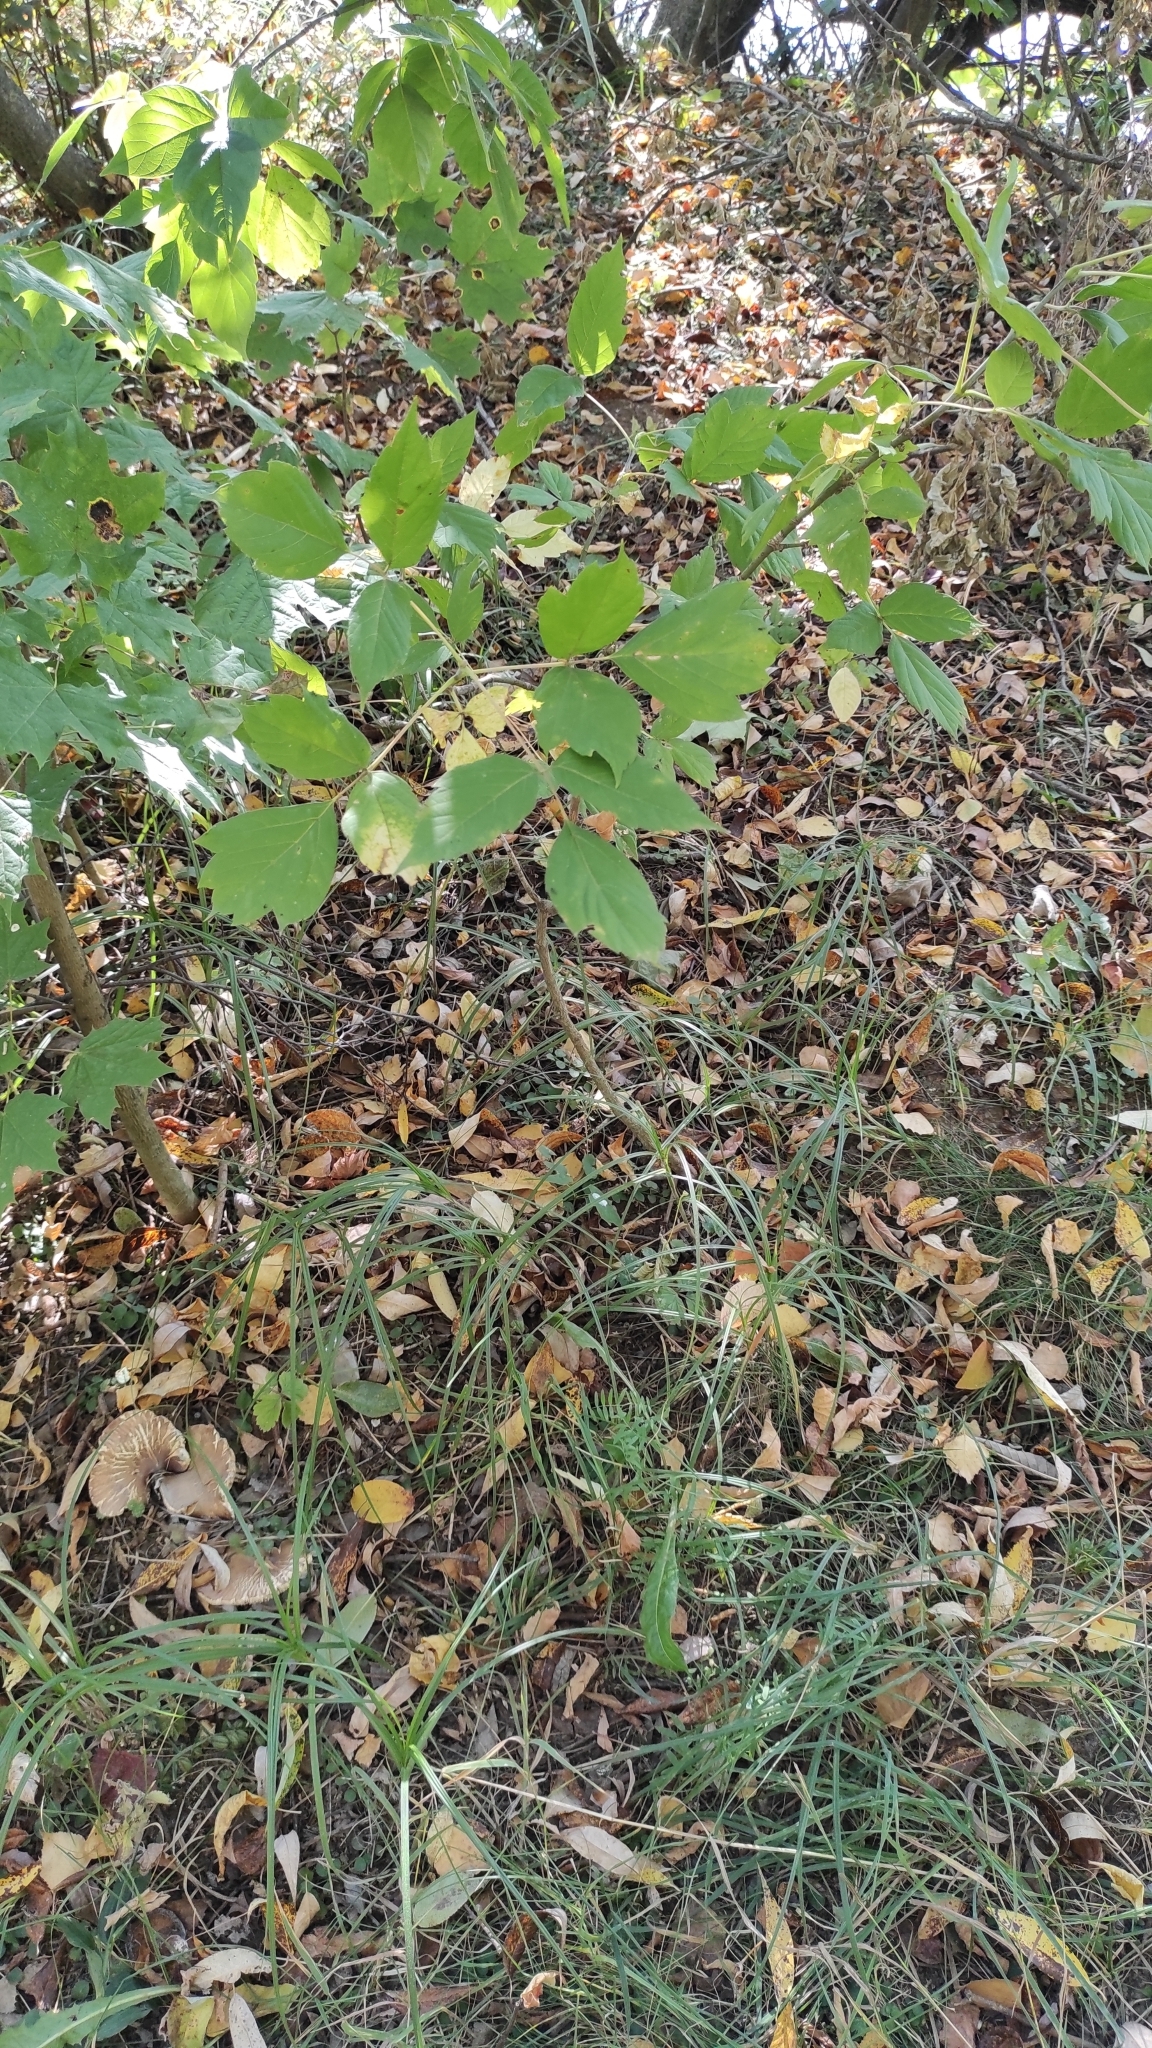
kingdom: Plantae
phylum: Tracheophyta
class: Magnoliopsida
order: Sapindales
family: Sapindaceae
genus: Acer
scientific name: Acer negundo
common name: Ashleaf maple
